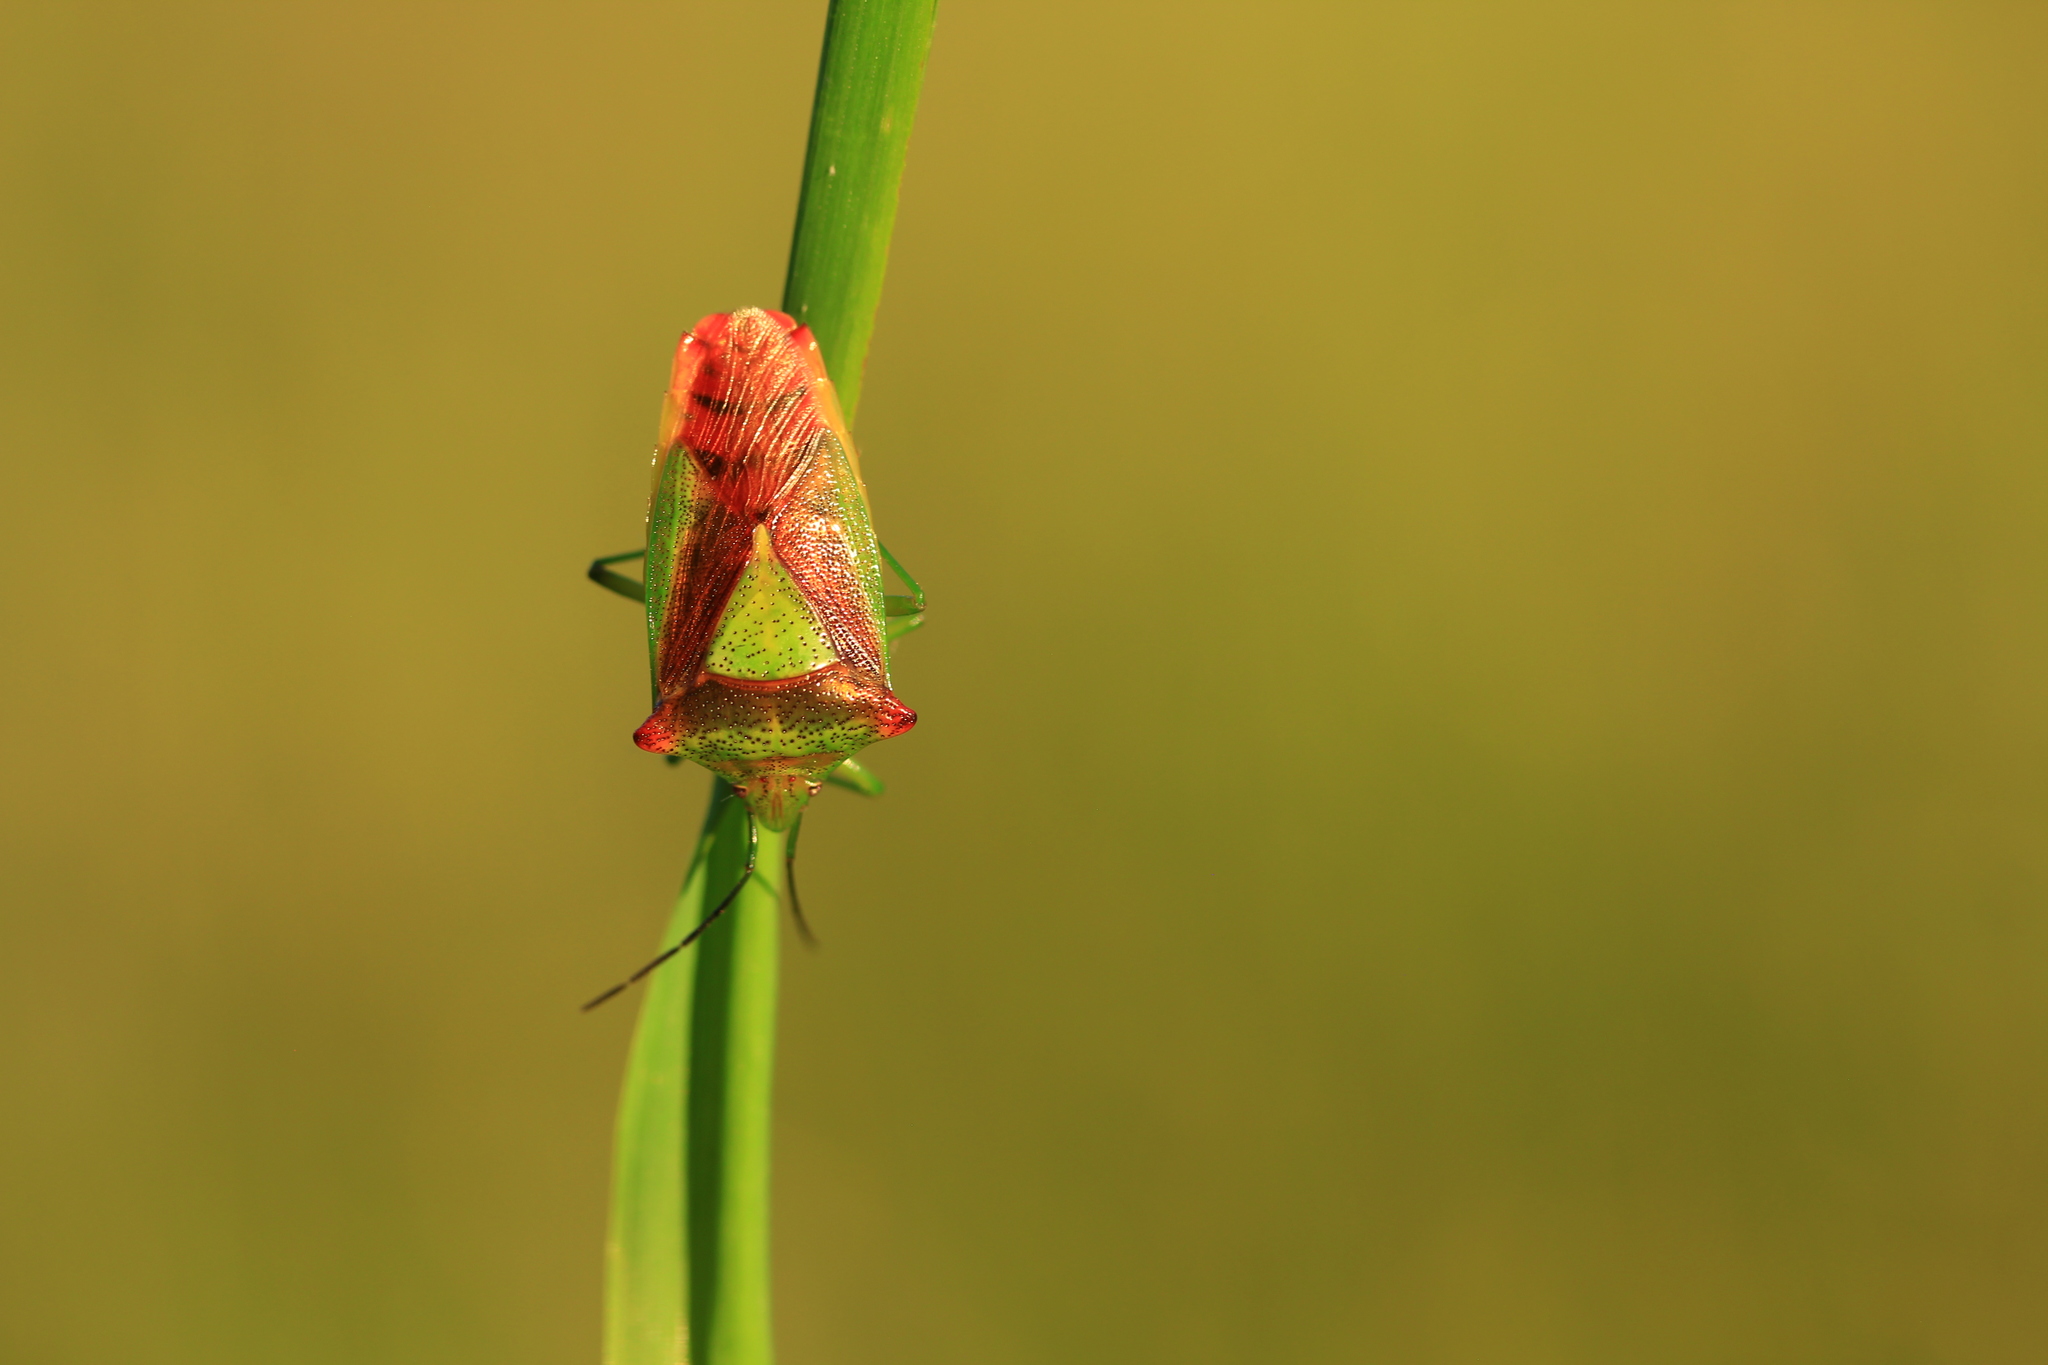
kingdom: Animalia
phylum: Arthropoda
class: Insecta
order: Hemiptera
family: Acanthosomatidae
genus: Acanthosoma
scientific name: Acanthosoma haemorrhoidale
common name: Hawthorn shieldbug
